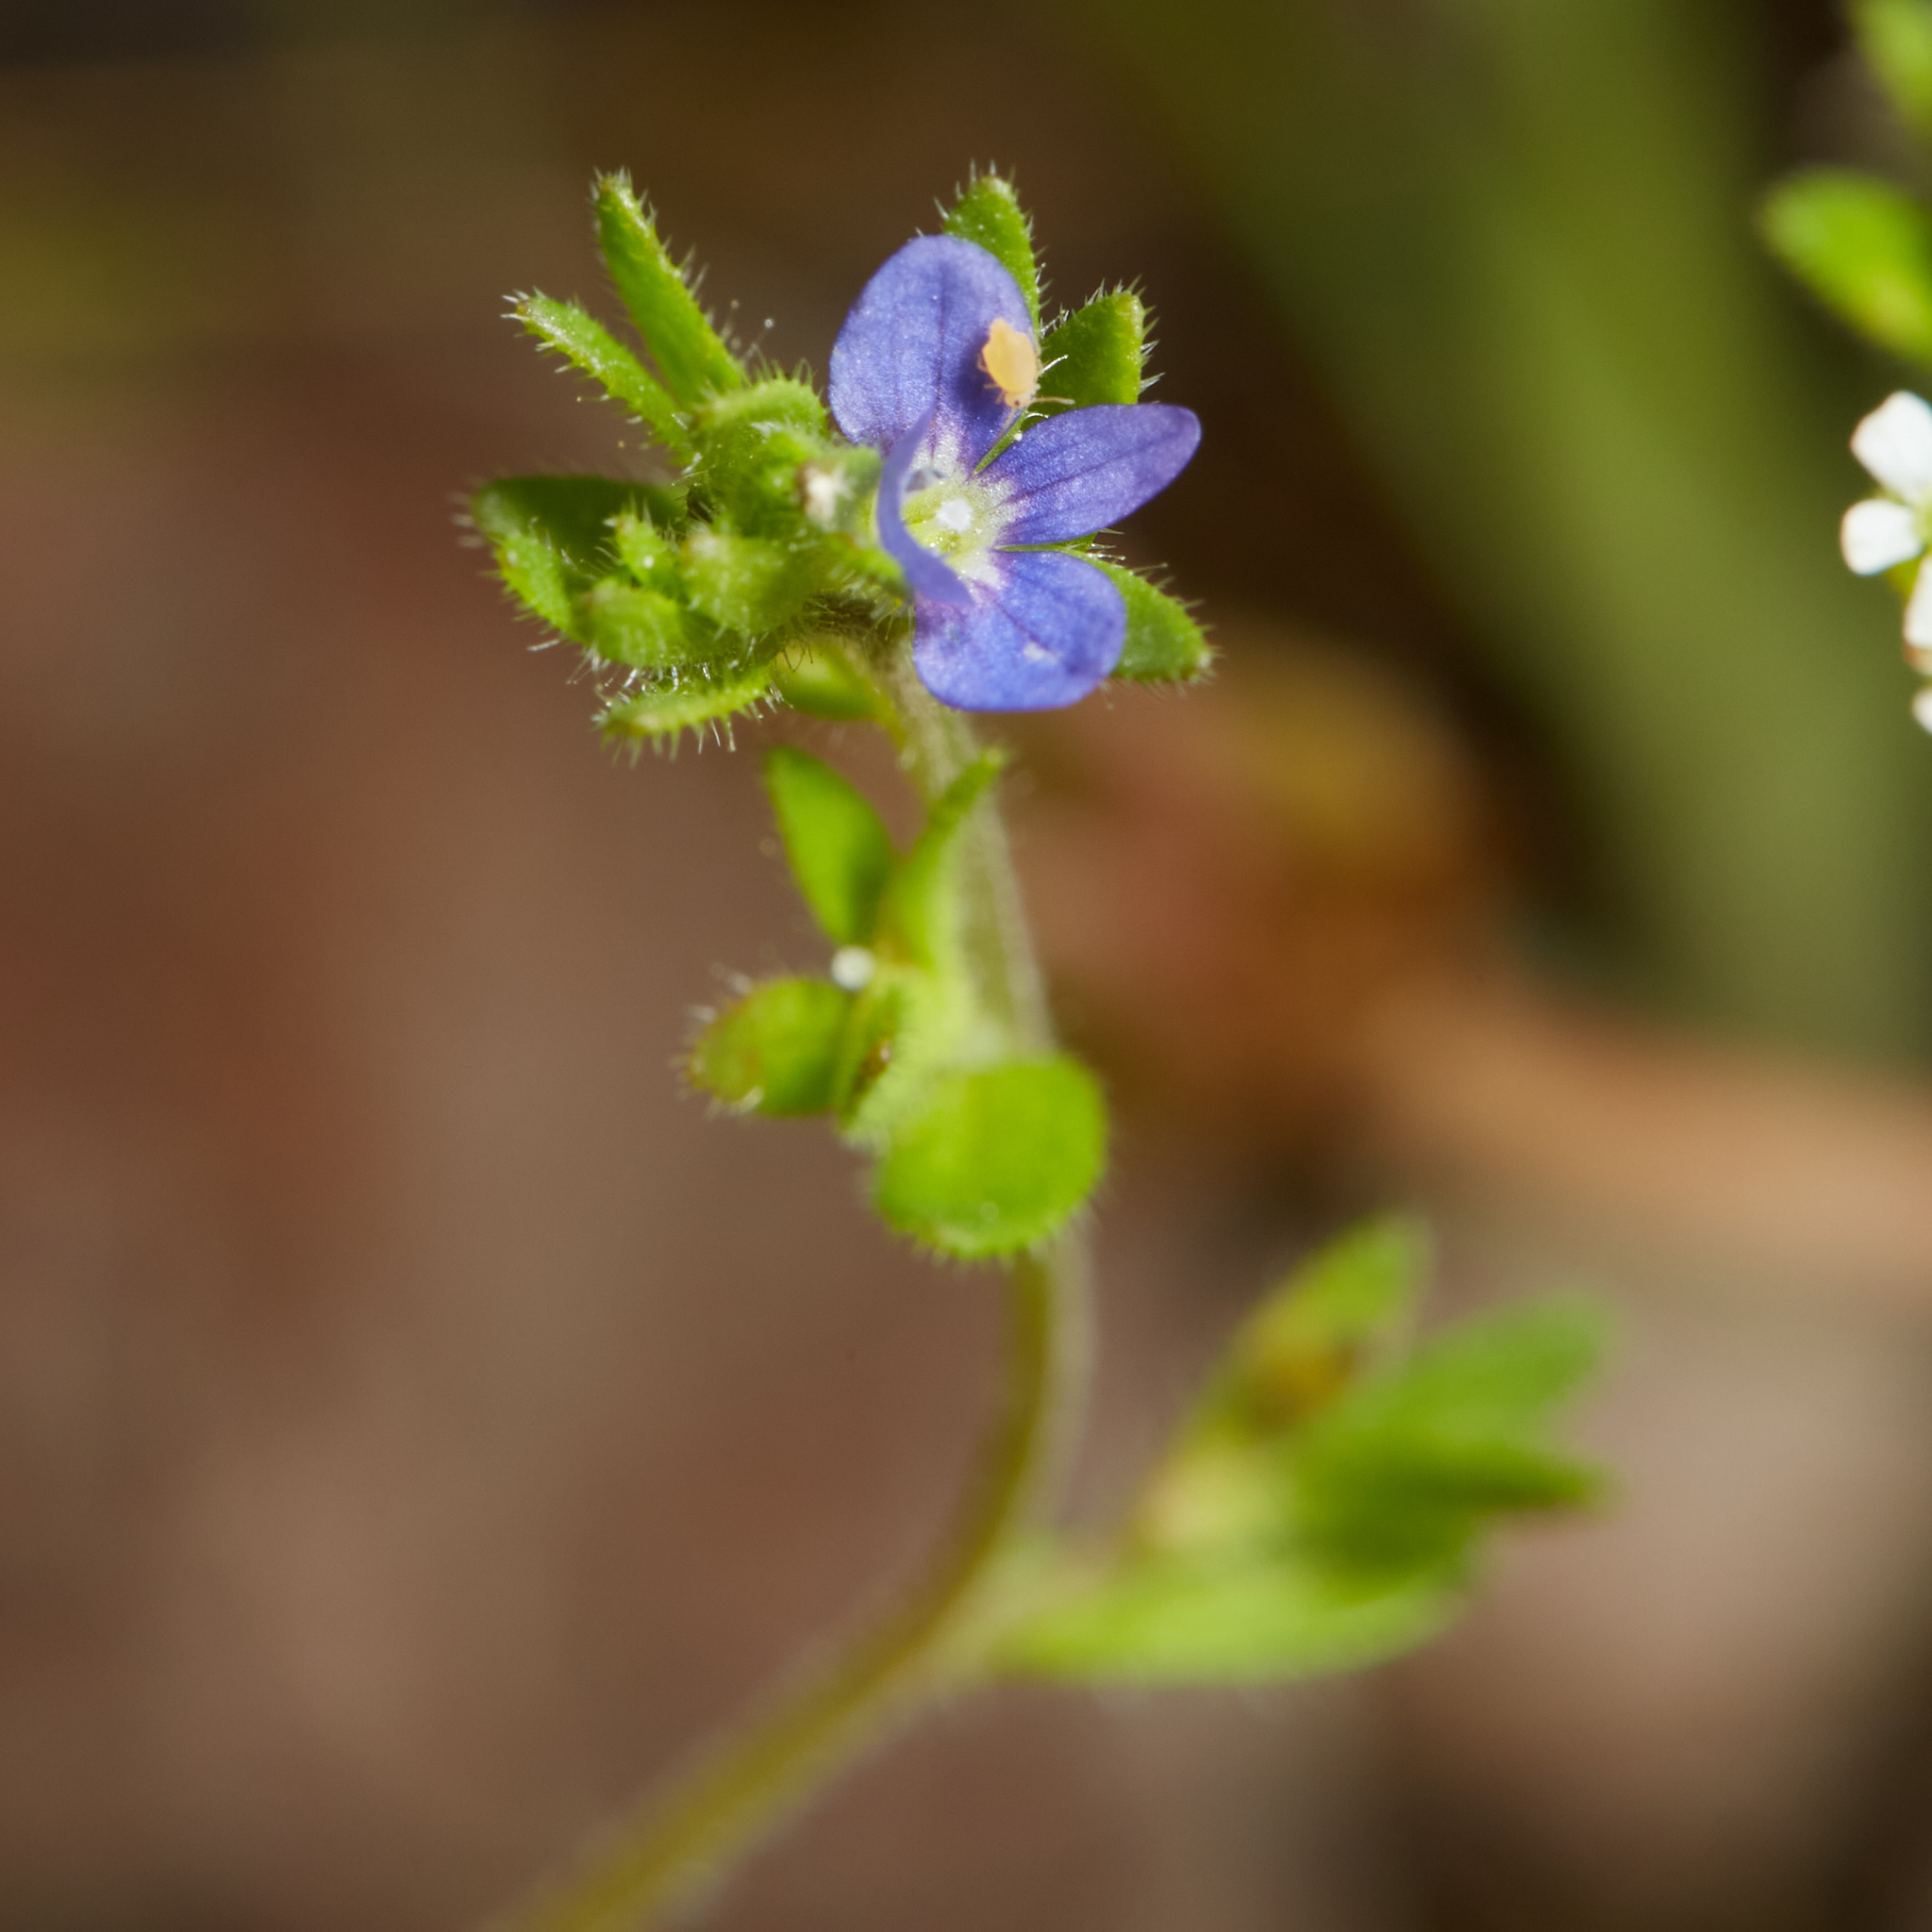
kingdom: Plantae
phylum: Tracheophyta
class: Magnoliopsida
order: Lamiales
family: Plantaginaceae
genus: Veronica
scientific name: Veronica arvensis
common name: Corn speedwell
